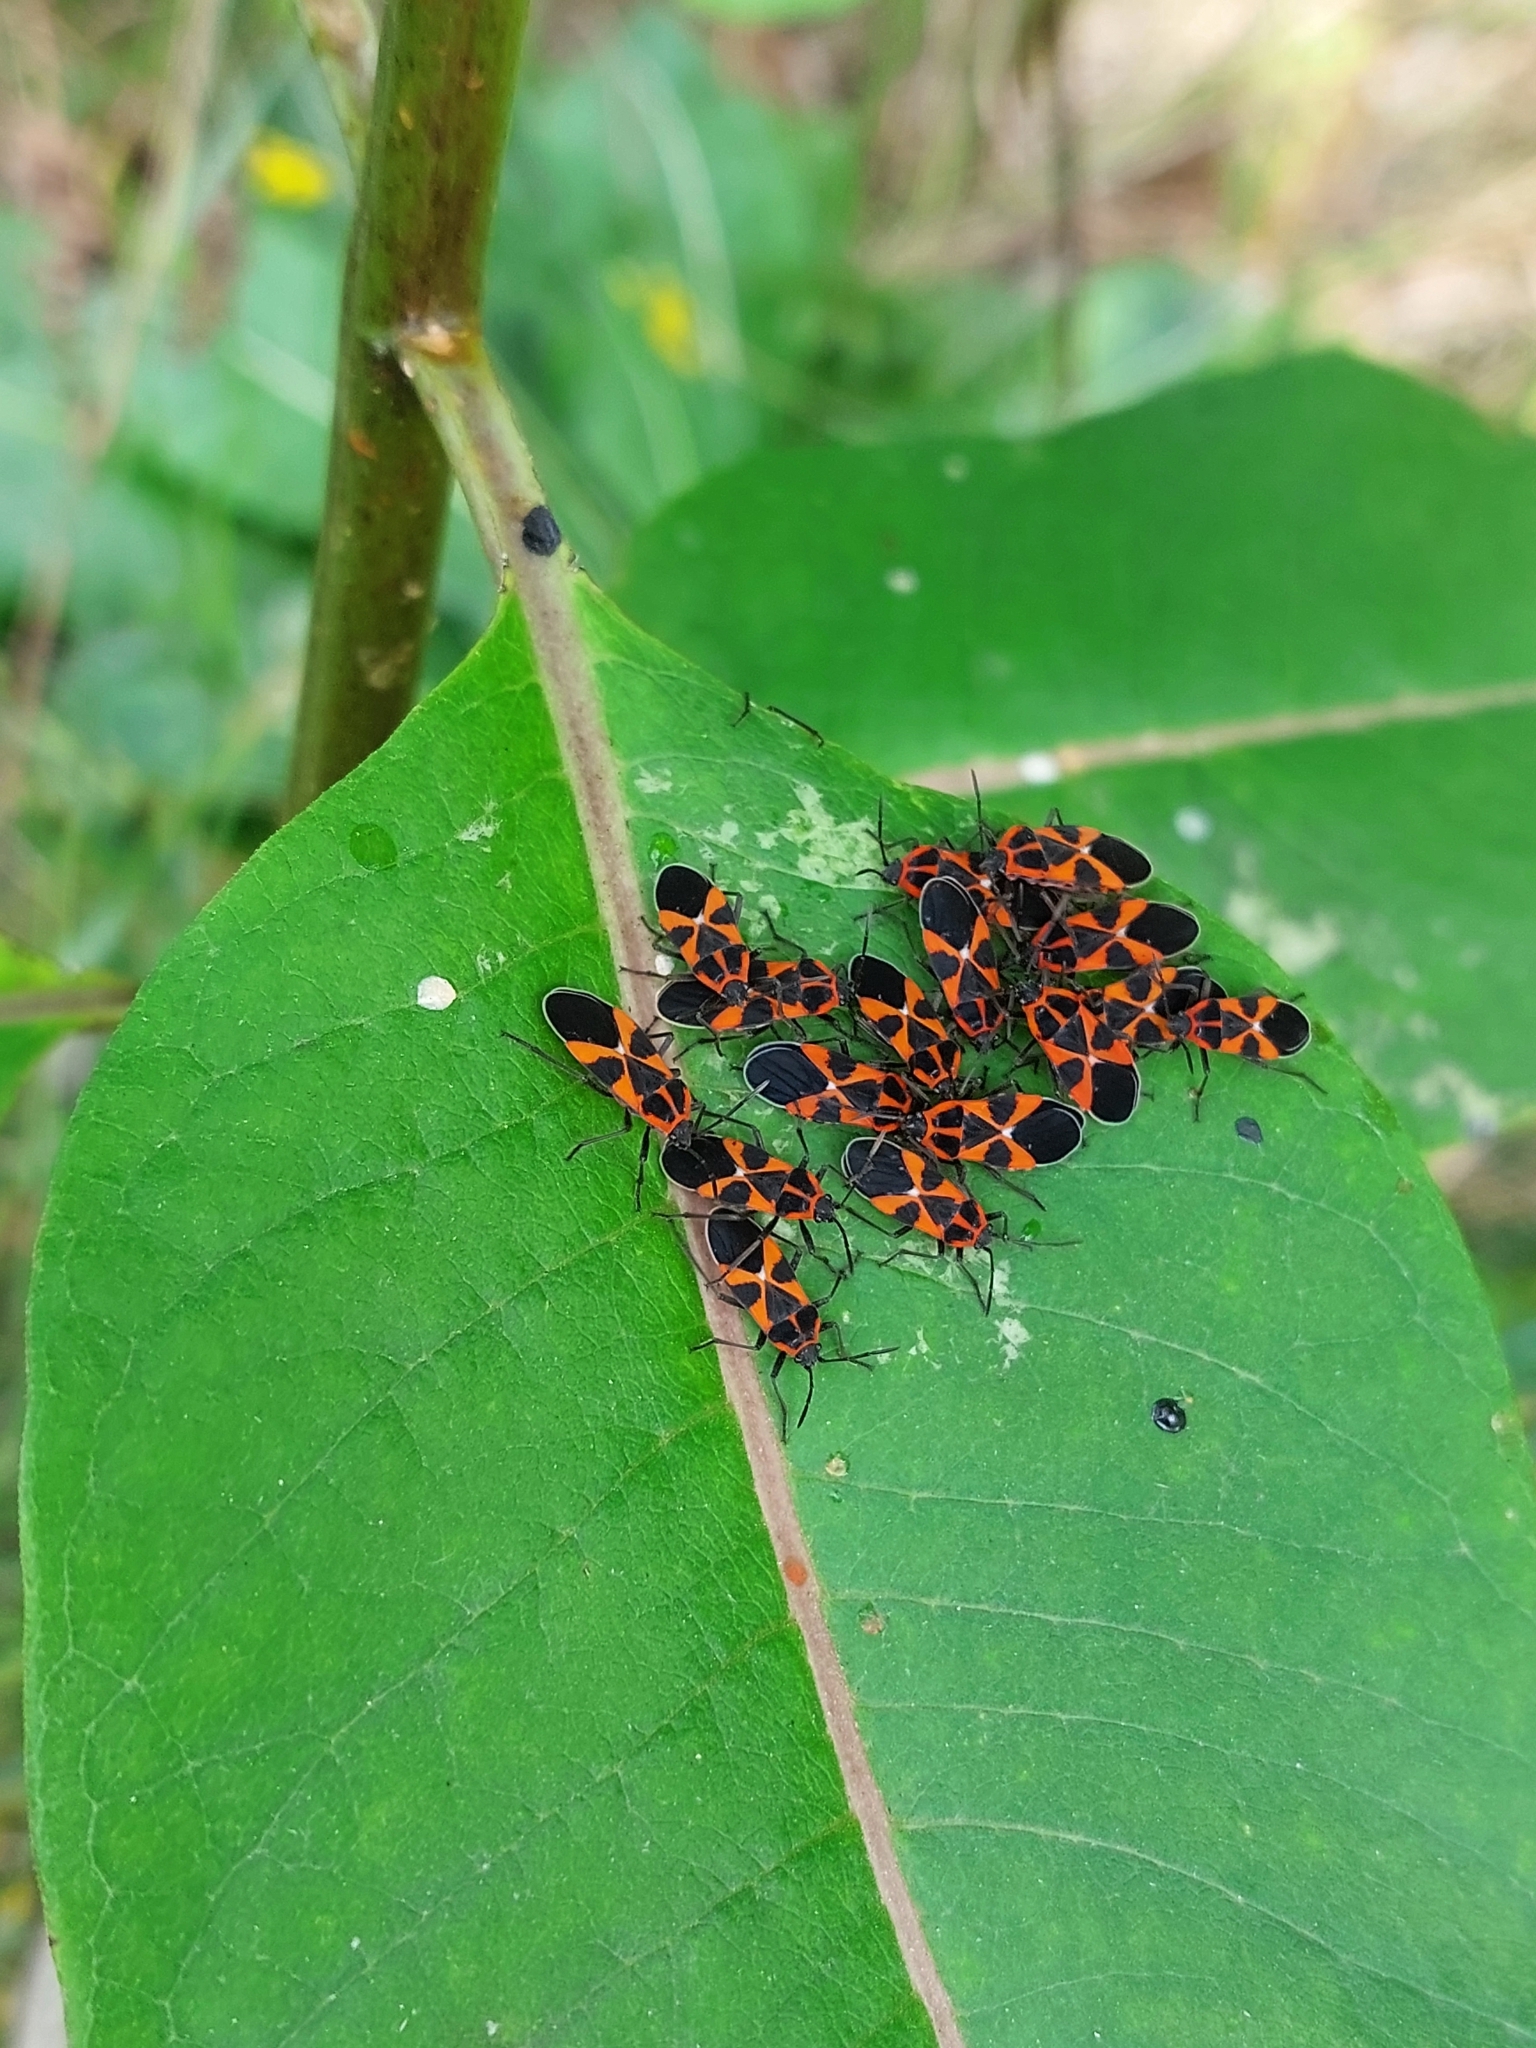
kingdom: Animalia
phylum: Arthropoda
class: Insecta
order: Hemiptera
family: Lygaeidae
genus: Tropidothorax
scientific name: Tropidothorax leucopterus
